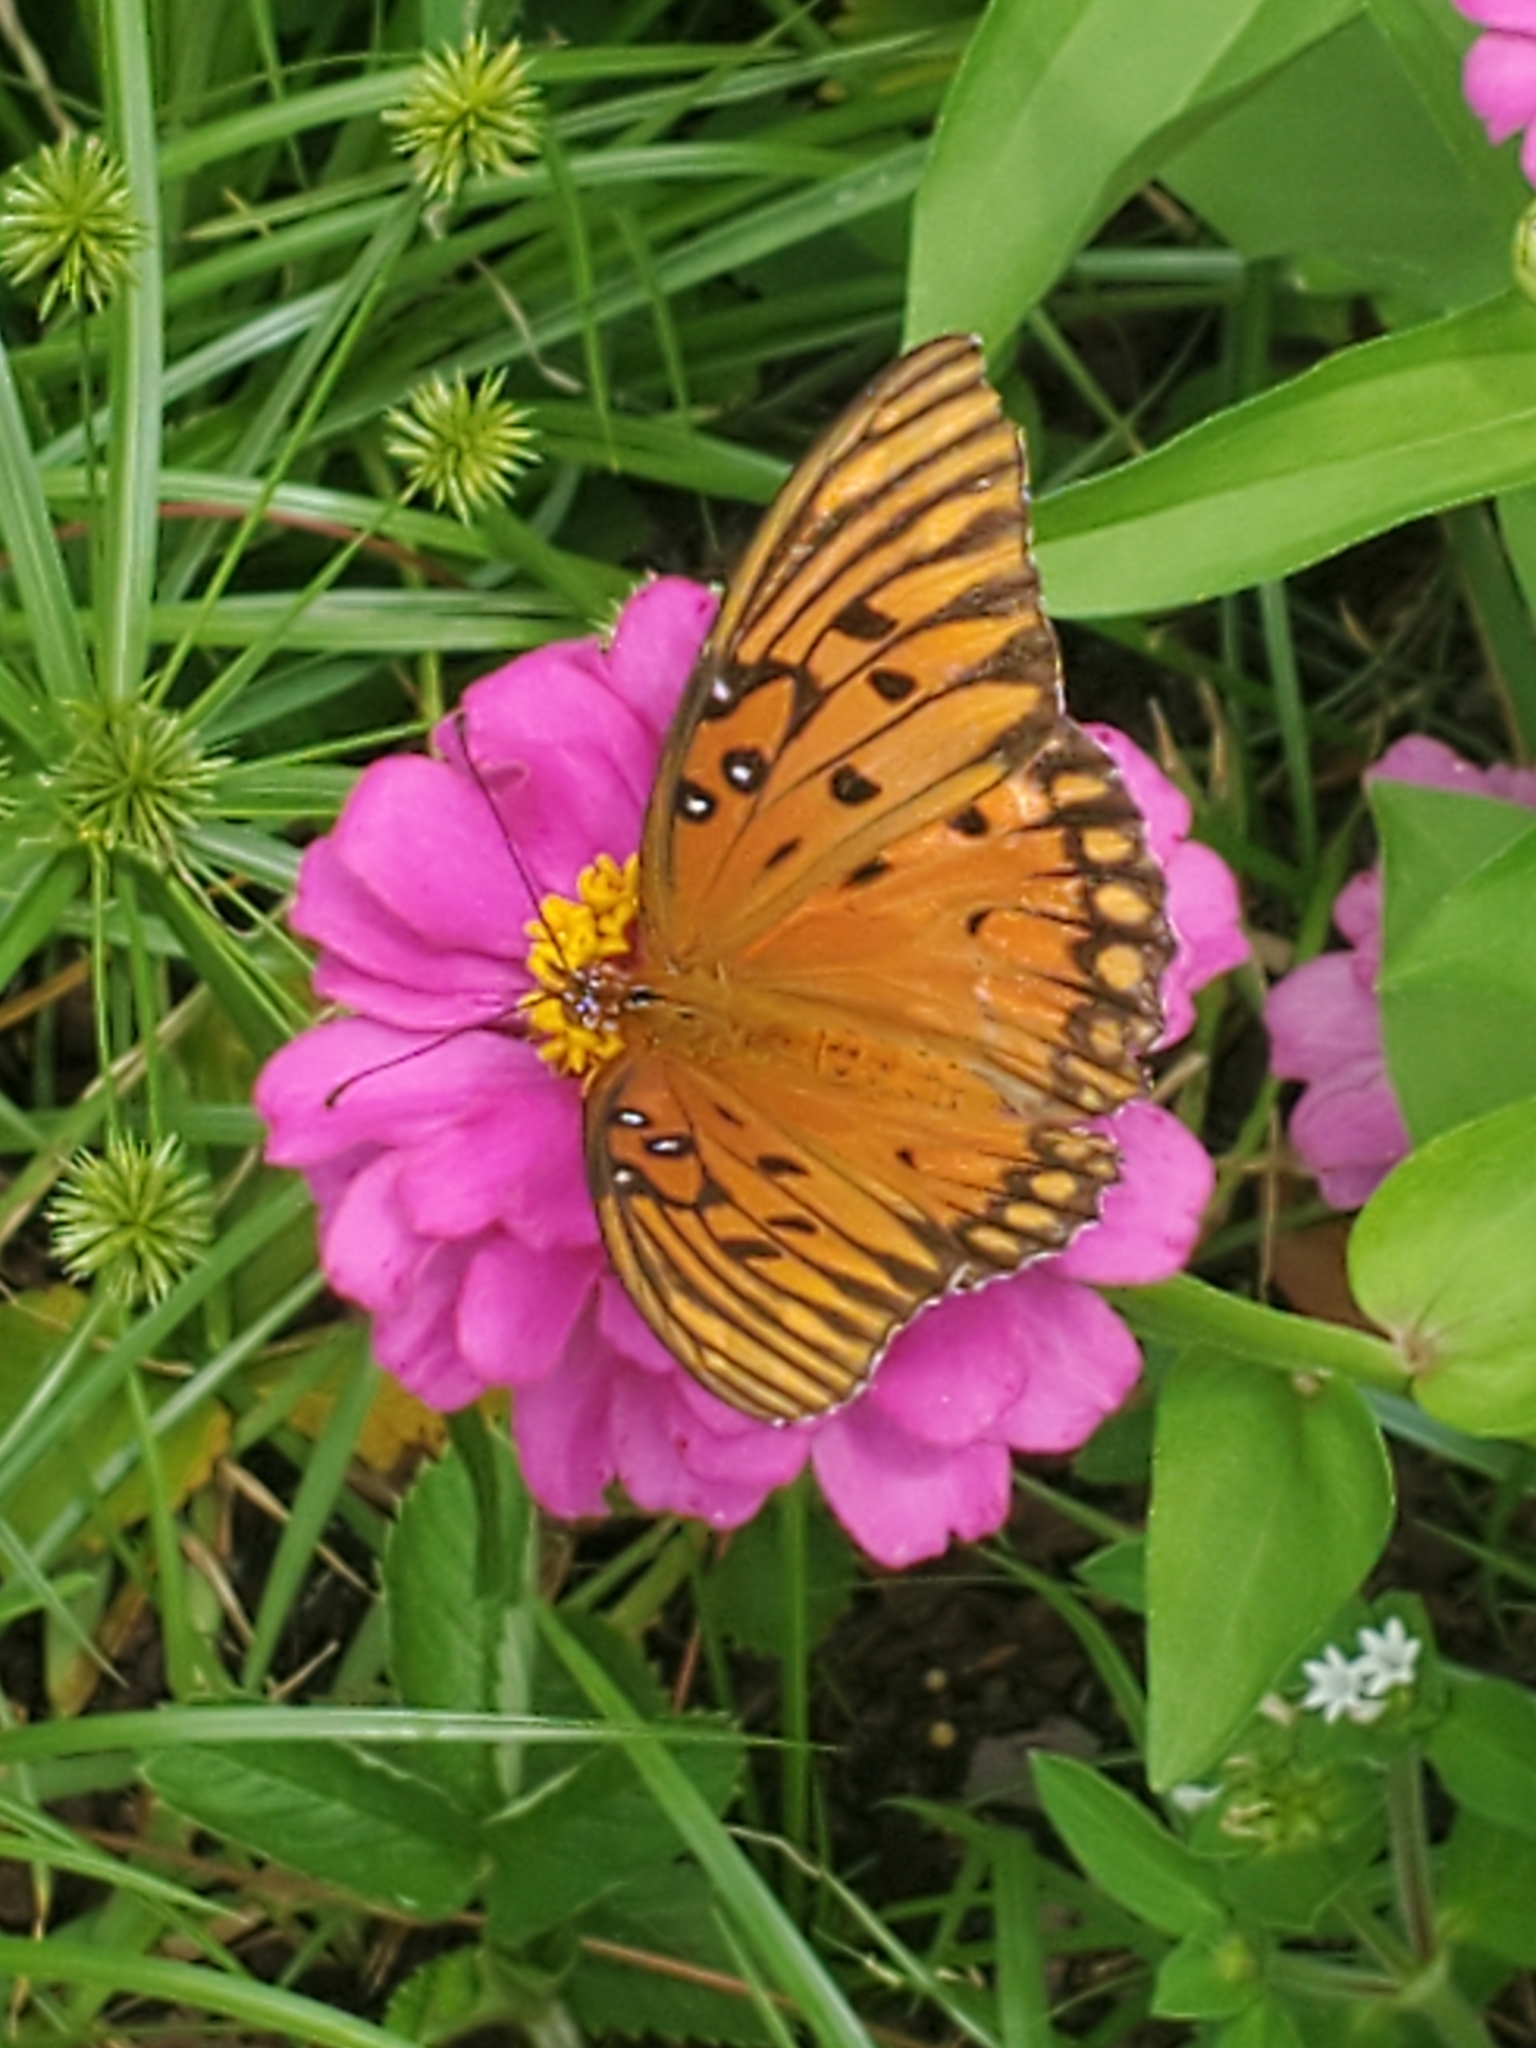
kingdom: Animalia
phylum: Arthropoda
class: Insecta
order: Lepidoptera
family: Nymphalidae
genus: Dione
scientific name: Dione vanillae
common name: Gulf fritillary
